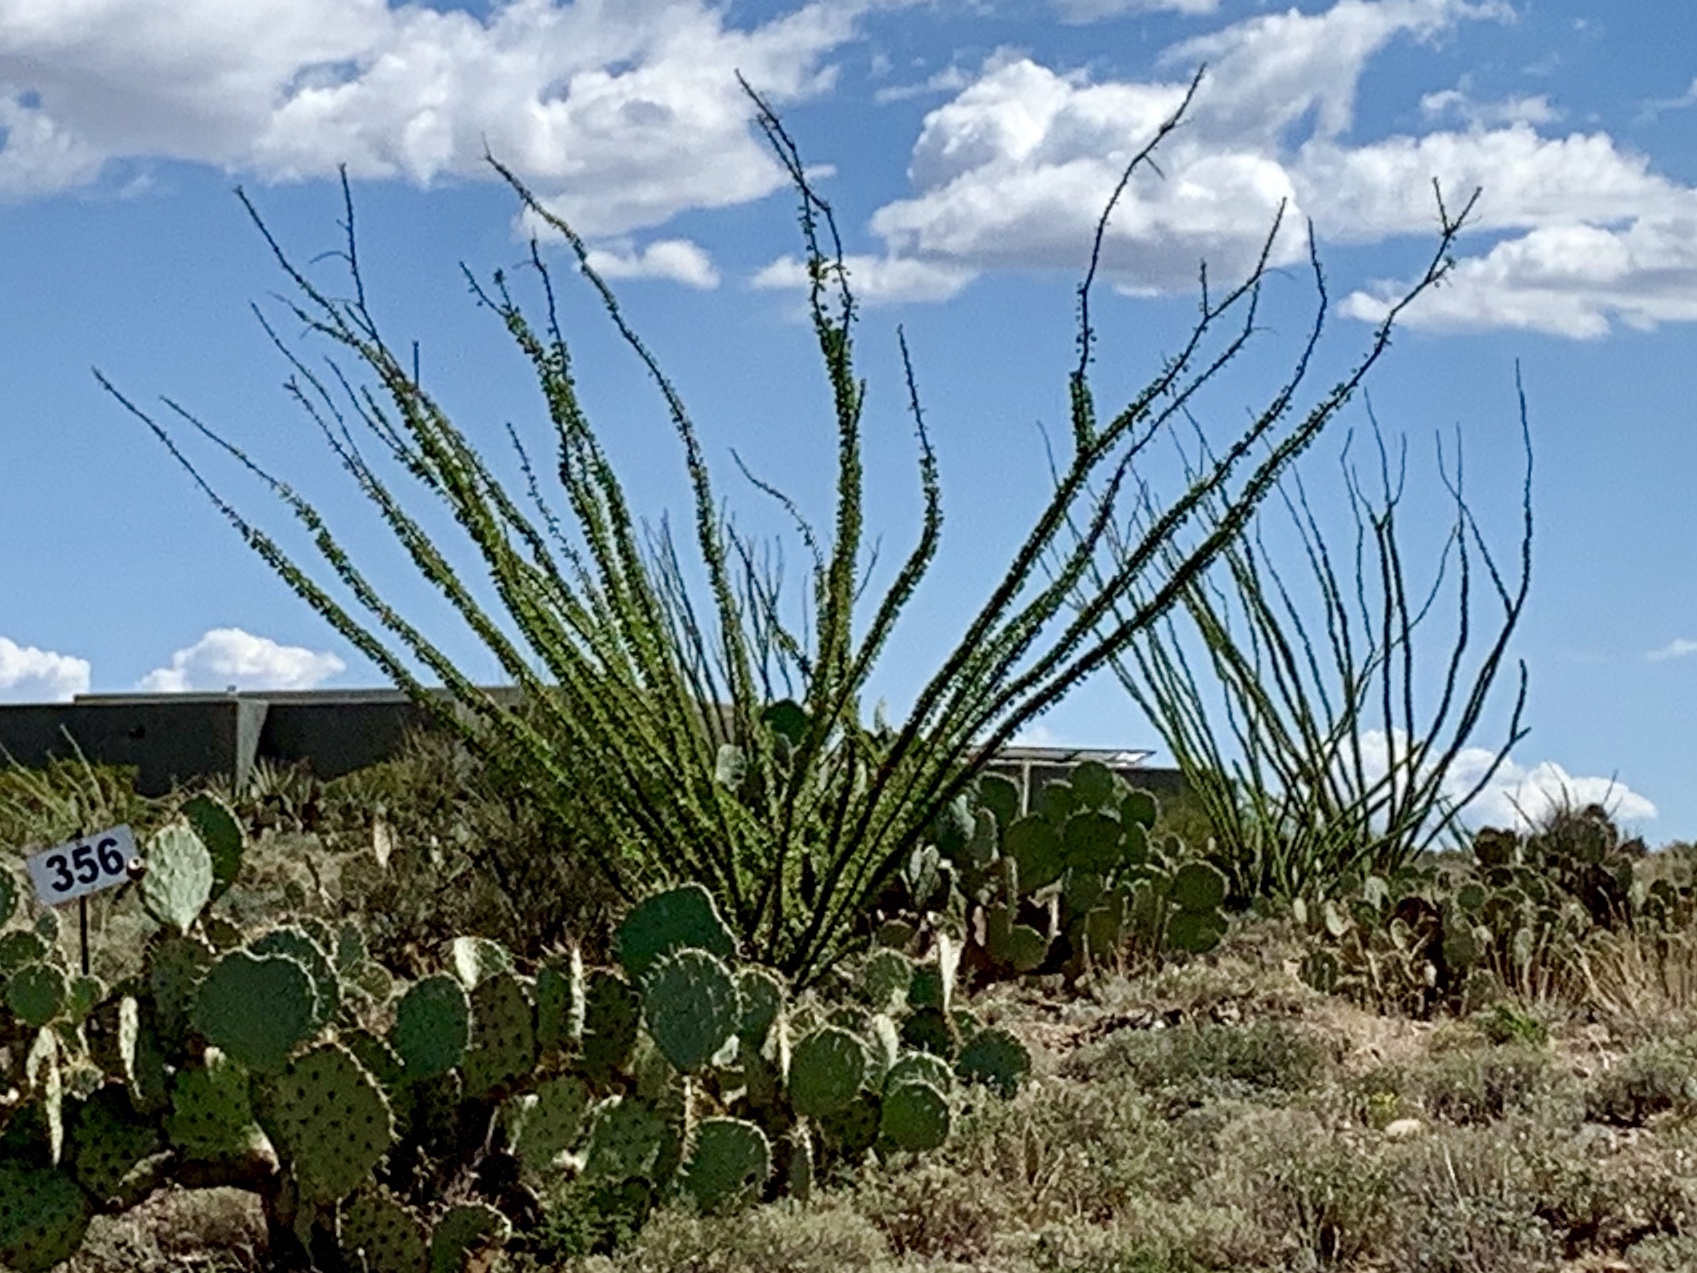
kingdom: Plantae
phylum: Tracheophyta
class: Magnoliopsida
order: Ericales
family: Fouquieriaceae
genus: Fouquieria
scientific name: Fouquieria splendens
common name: Vine-cactus
